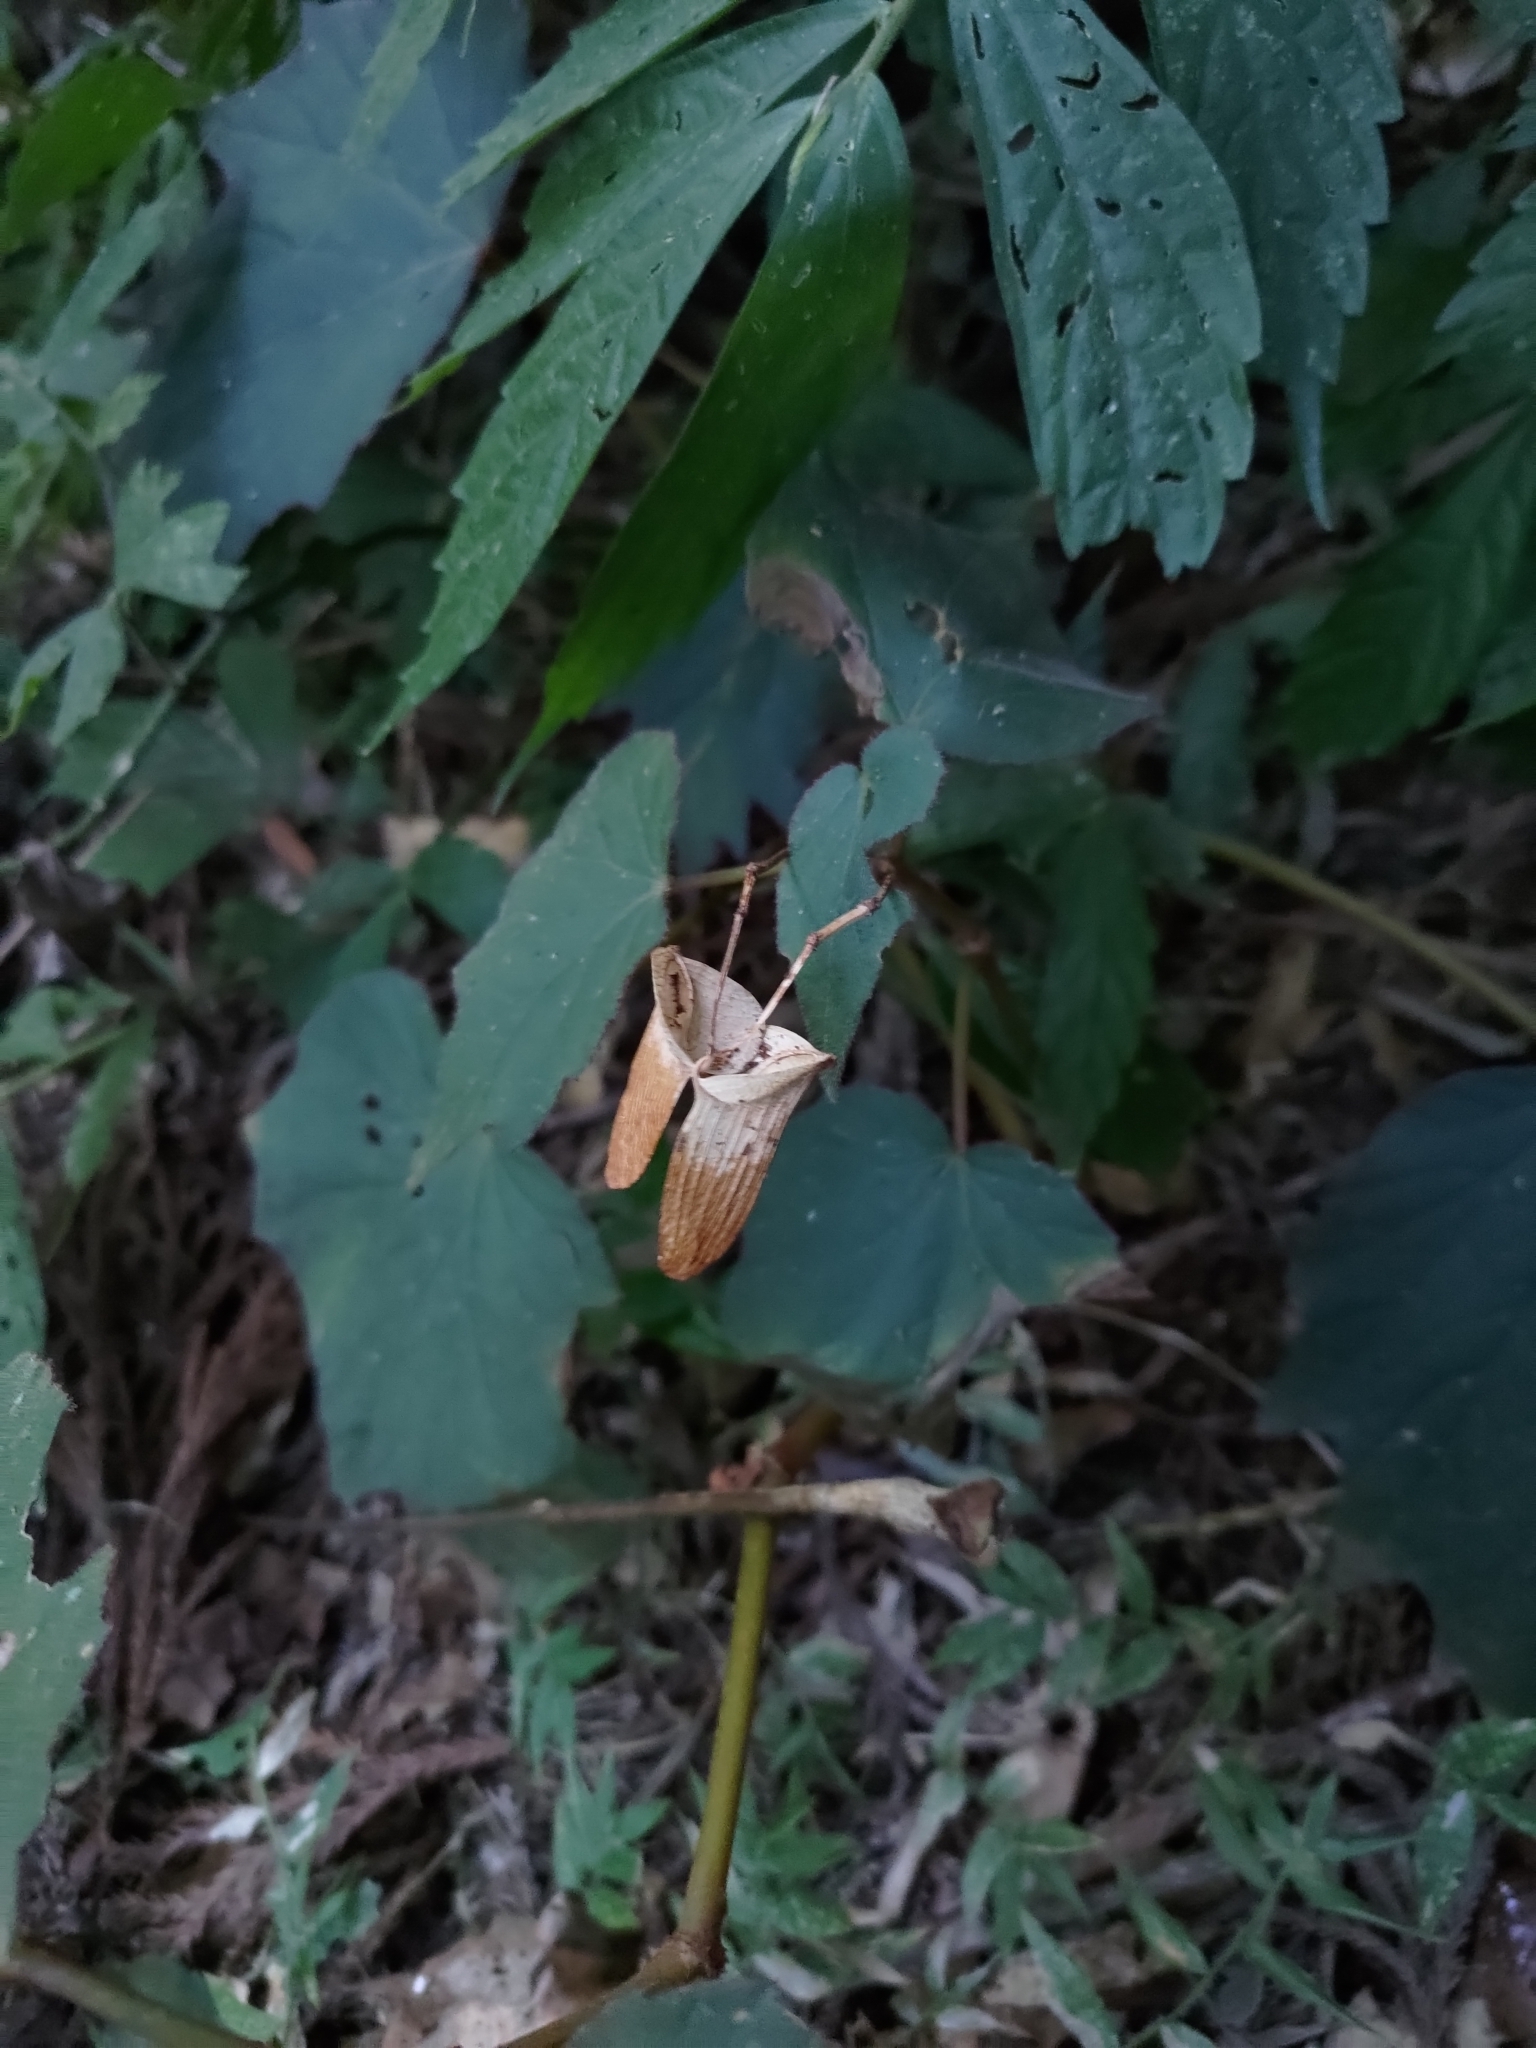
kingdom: Plantae
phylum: Tracheophyta
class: Magnoliopsida
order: Cucurbitales
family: Begoniaceae
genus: Begonia
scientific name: Begonia palmata
